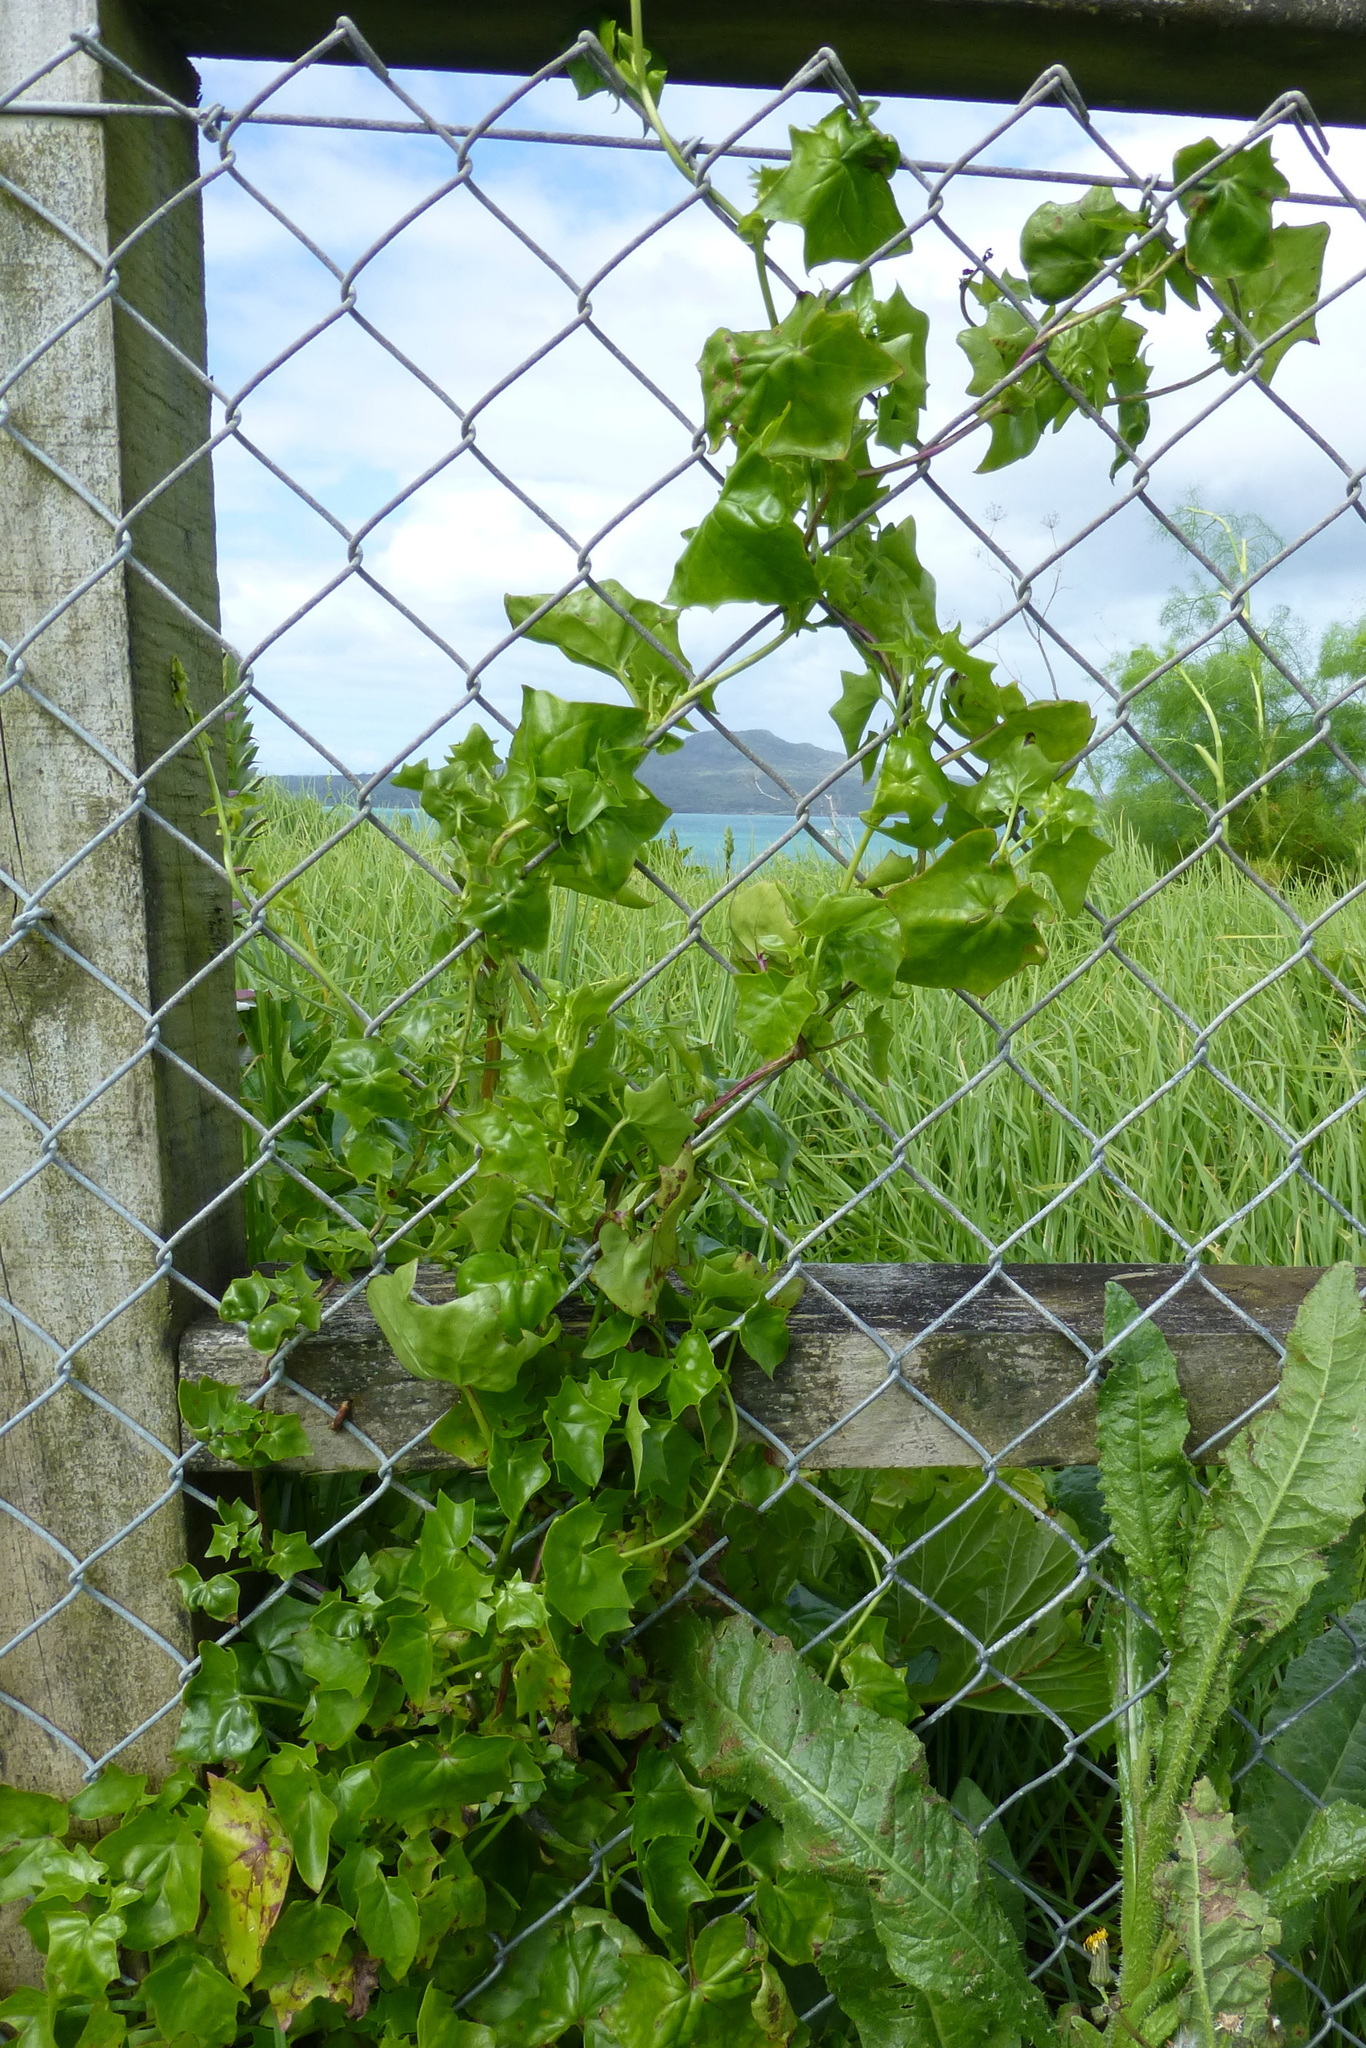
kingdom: Plantae
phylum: Tracheophyta
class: Magnoliopsida
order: Asterales
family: Asteraceae
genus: Delairea
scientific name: Delairea odorata
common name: Cape-ivy
